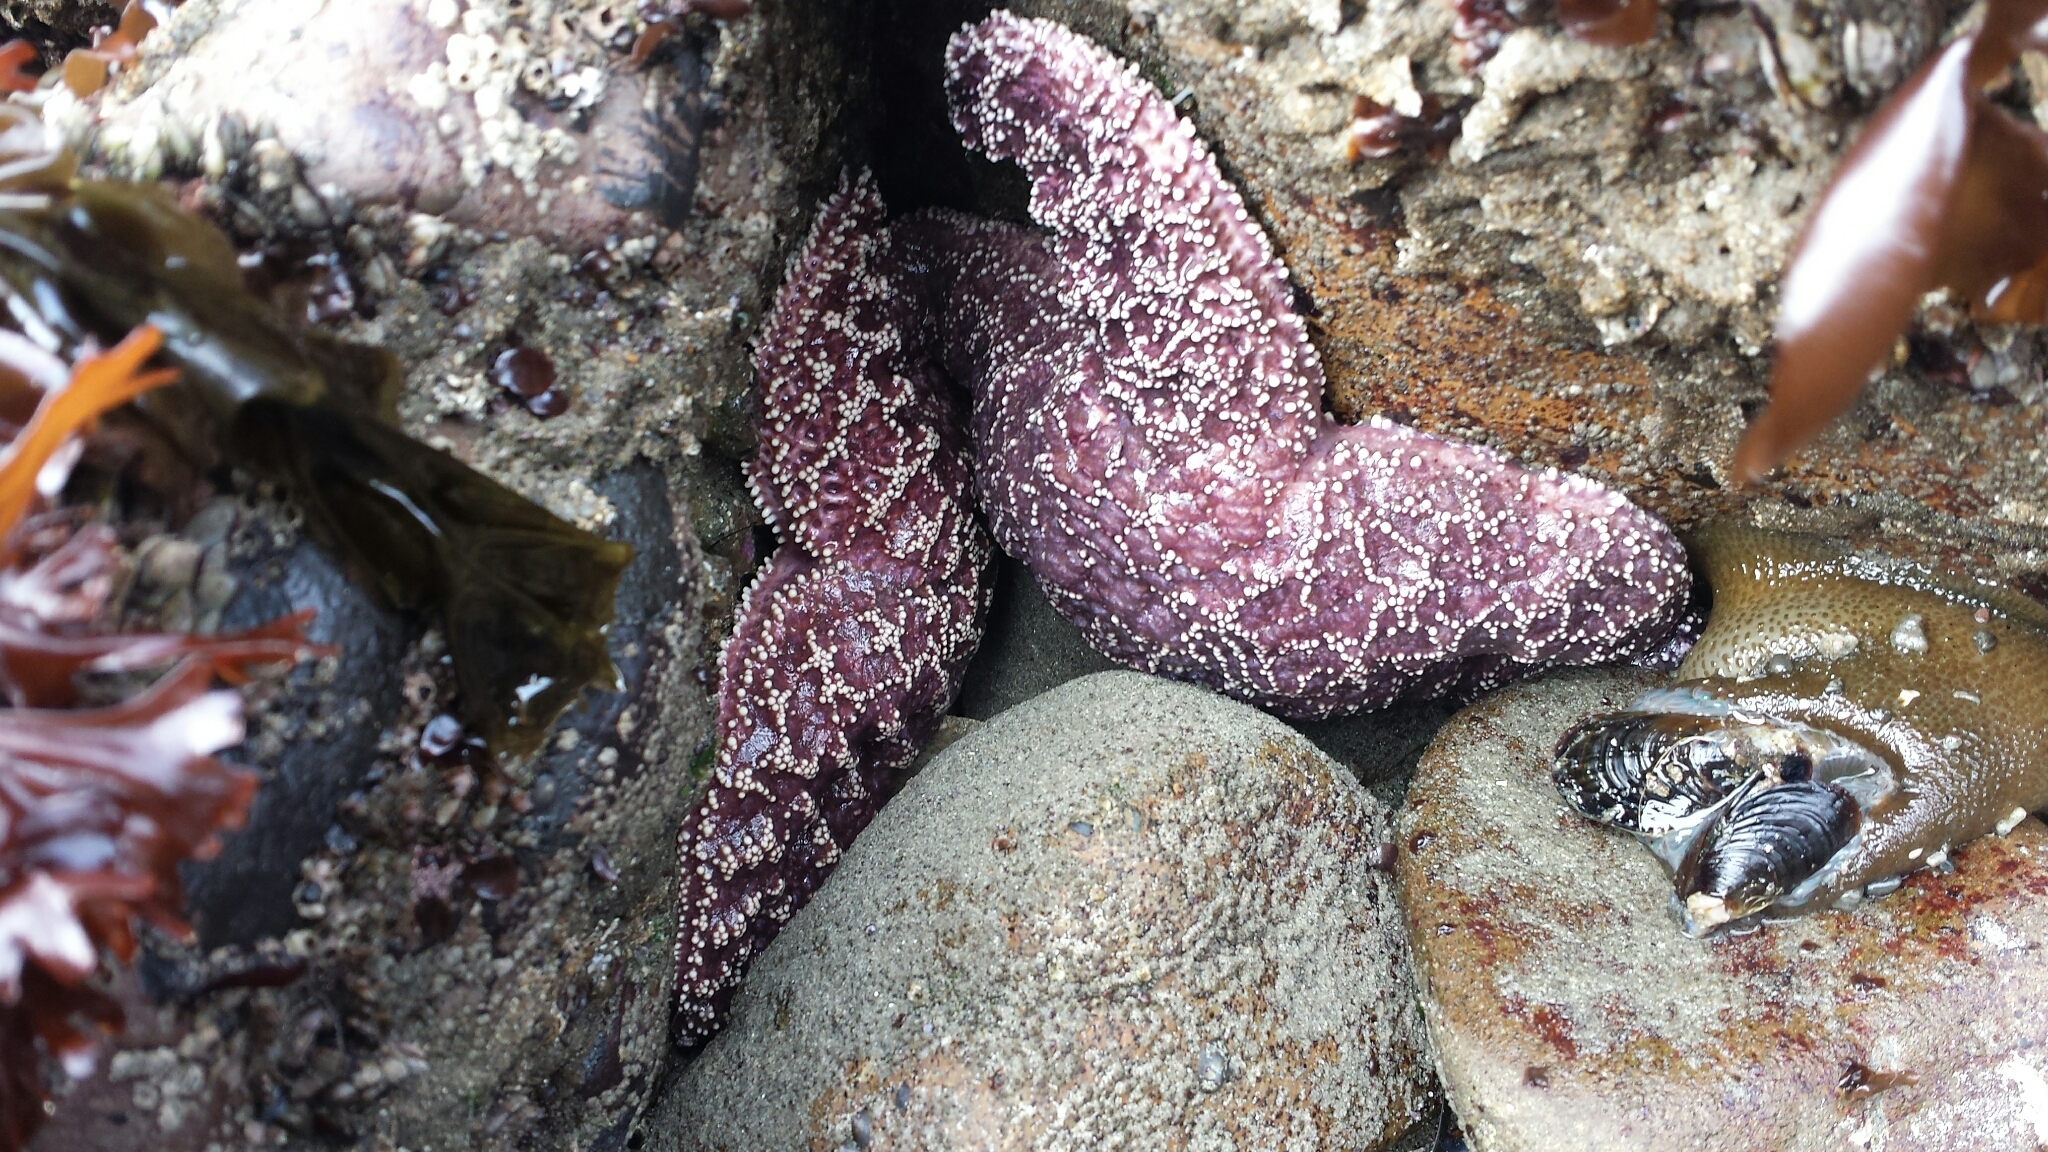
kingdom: Animalia
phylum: Echinodermata
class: Asteroidea
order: Forcipulatida
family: Asteriidae
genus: Pisaster
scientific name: Pisaster ochraceus
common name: Ochre stars
